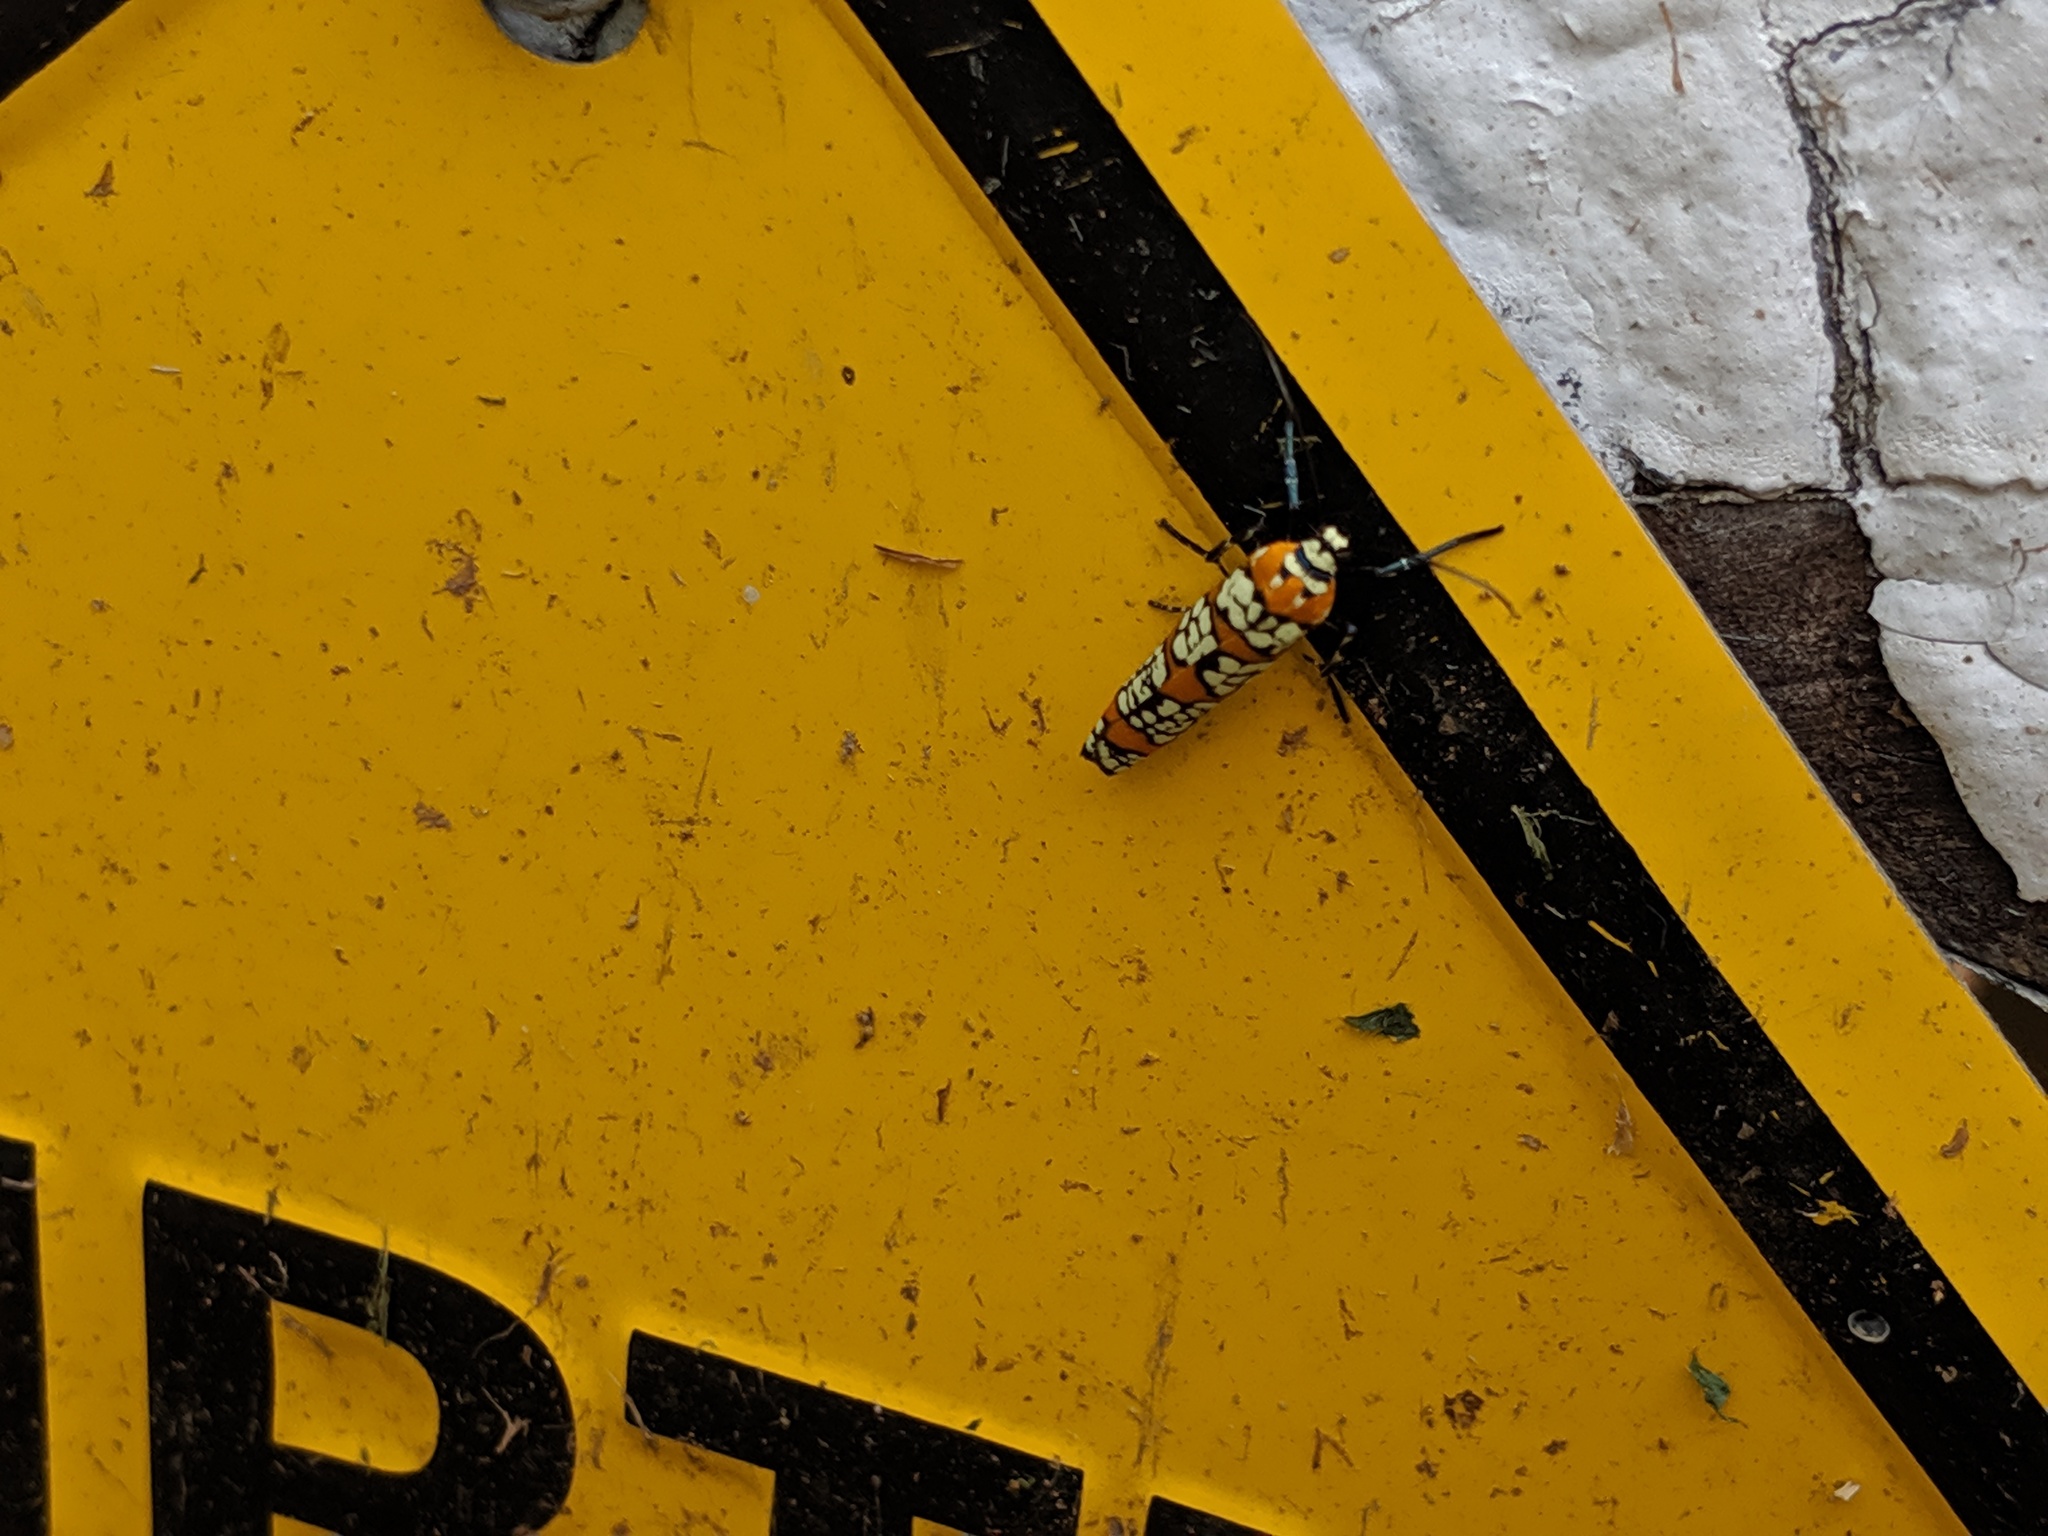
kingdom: Animalia
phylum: Arthropoda
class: Insecta
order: Lepidoptera
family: Attevidae
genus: Atteva
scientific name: Atteva punctella
